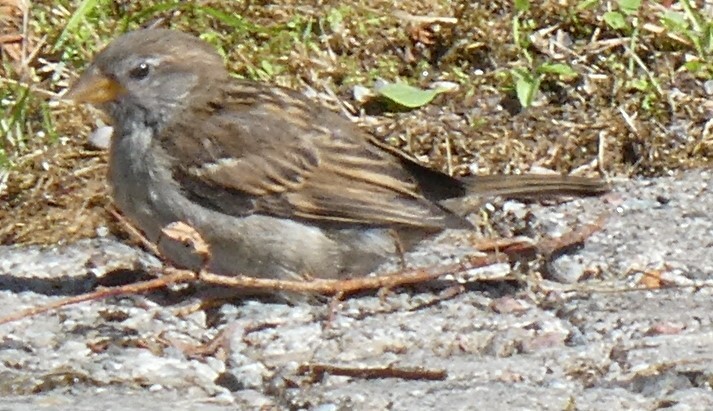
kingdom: Animalia
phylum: Chordata
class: Aves
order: Passeriformes
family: Passeridae
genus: Passer
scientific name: Passer domesticus
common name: House sparrow
